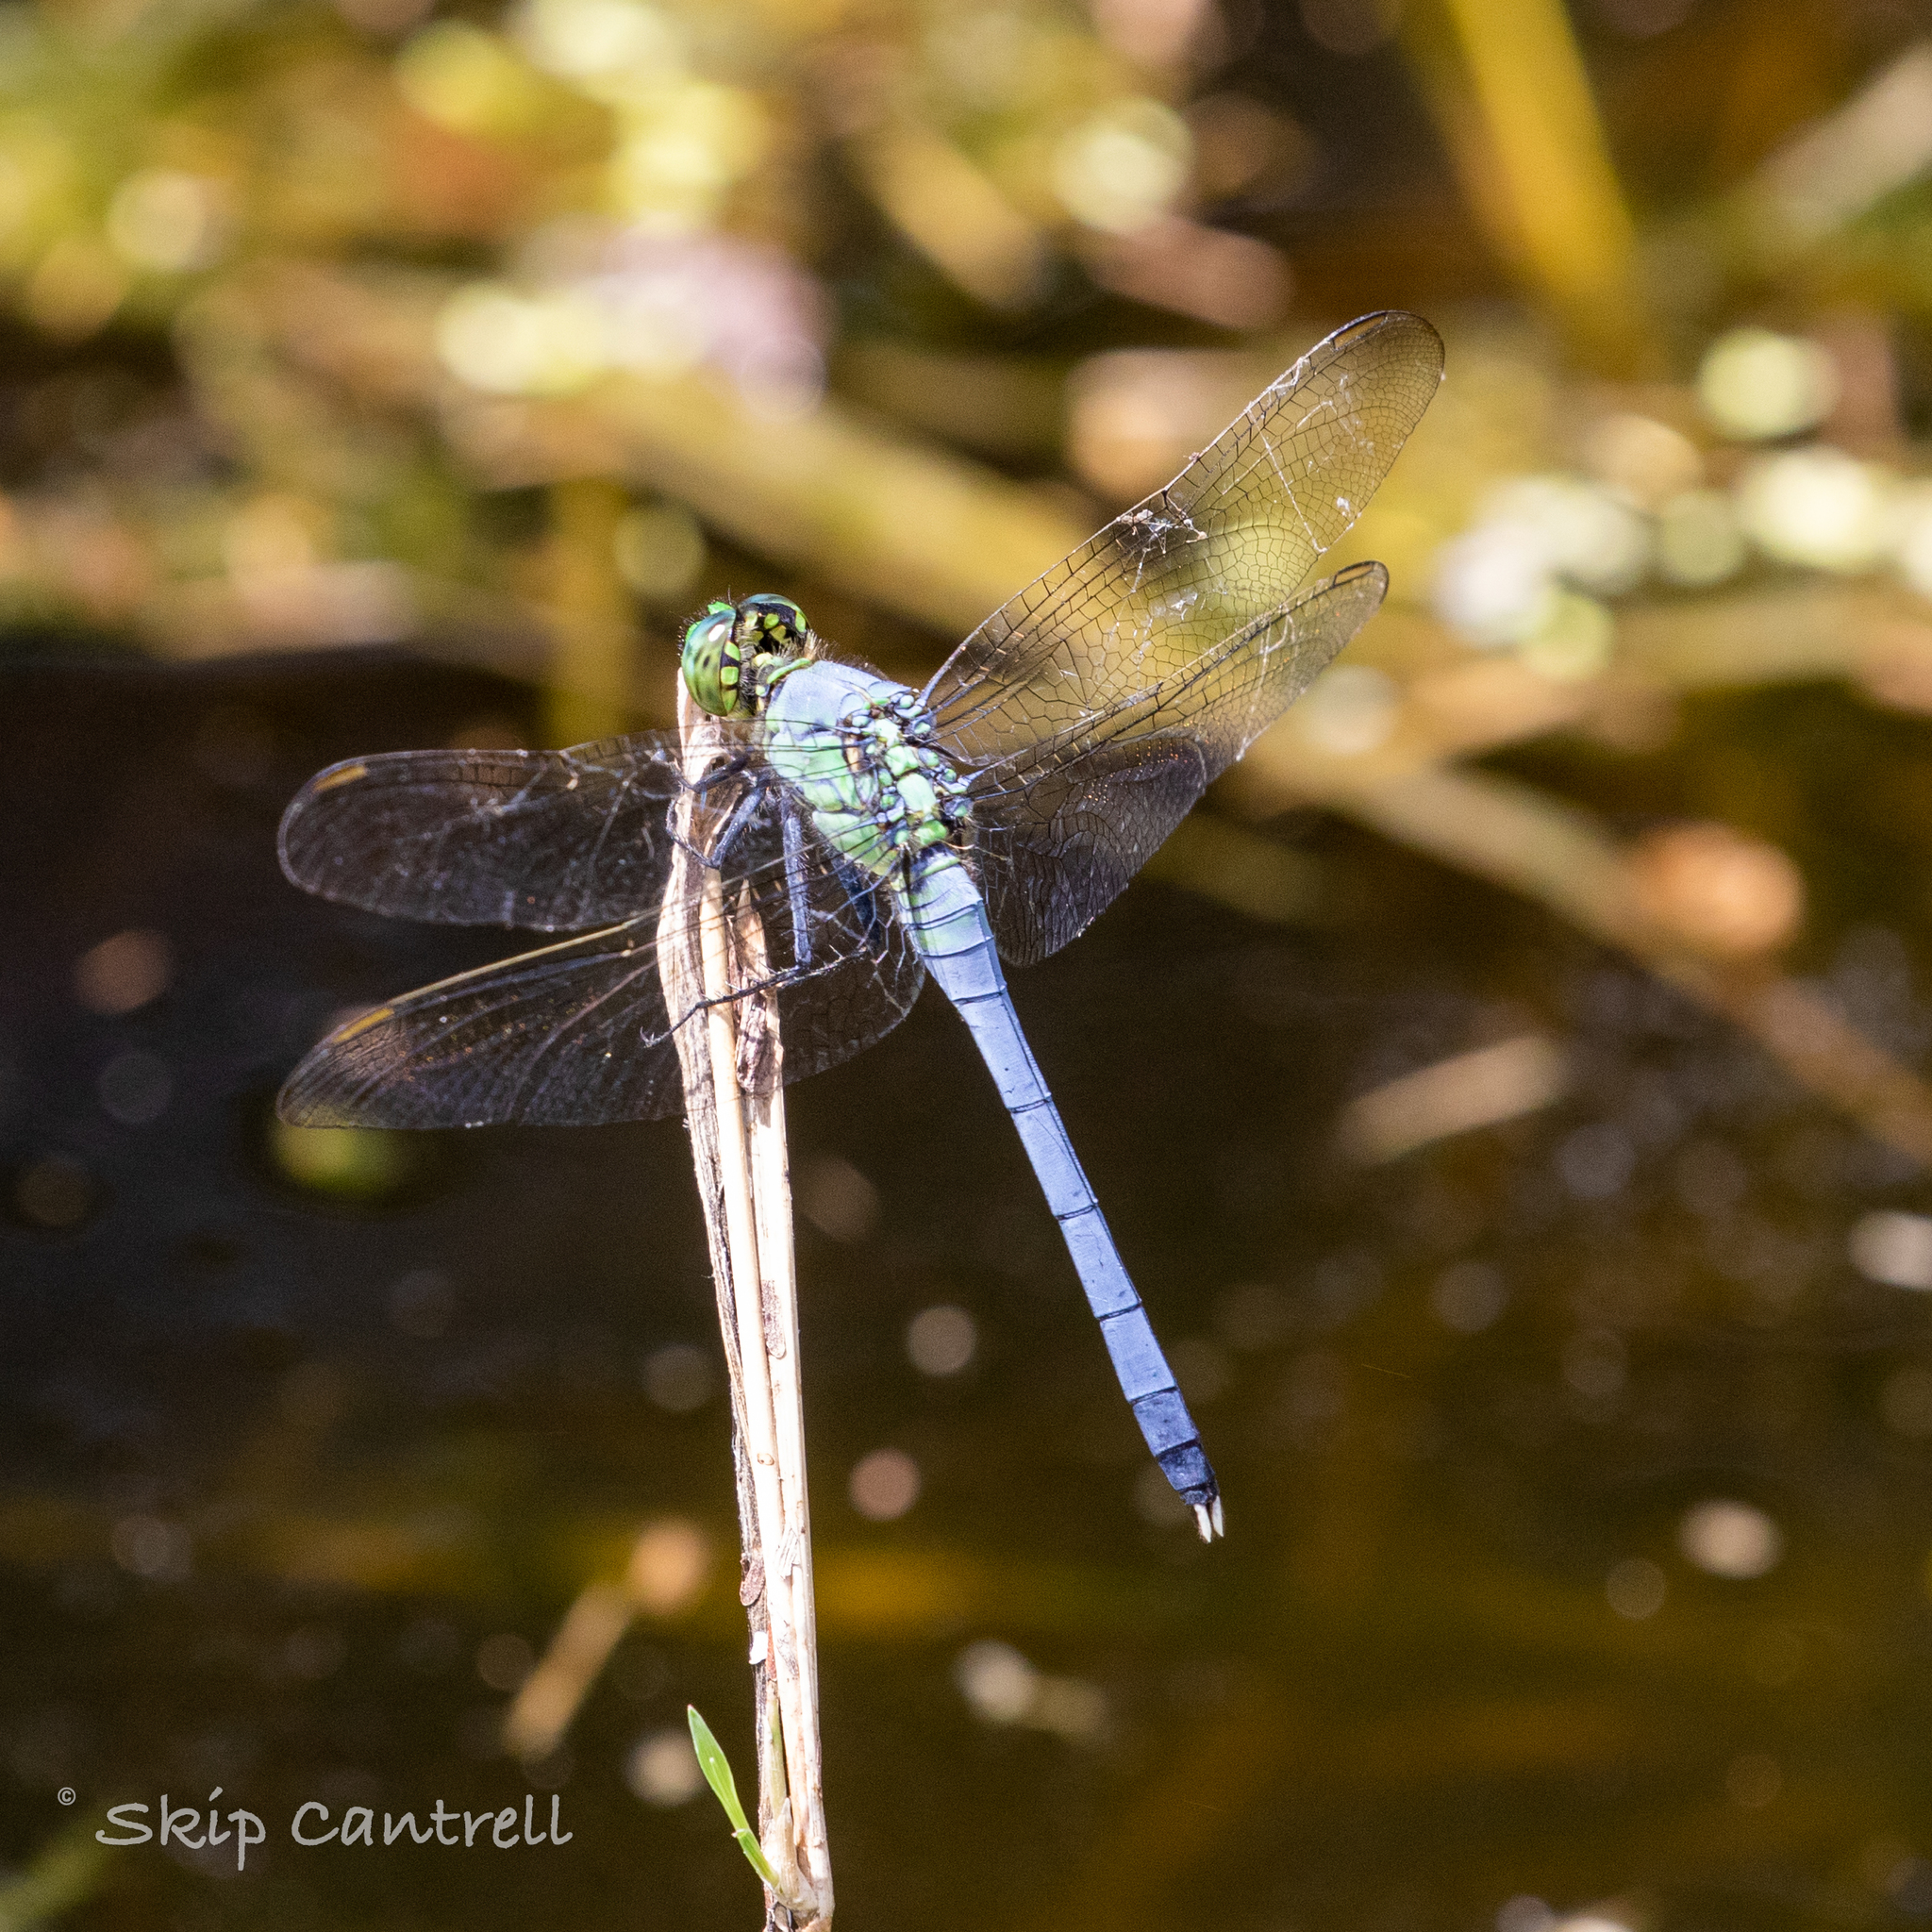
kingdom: Animalia
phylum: Arthropoda
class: Insecta
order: Odonata
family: Libellulidae
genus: Erythemis
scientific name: Erythemis simplicicollis
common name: Eastern pondhawk
